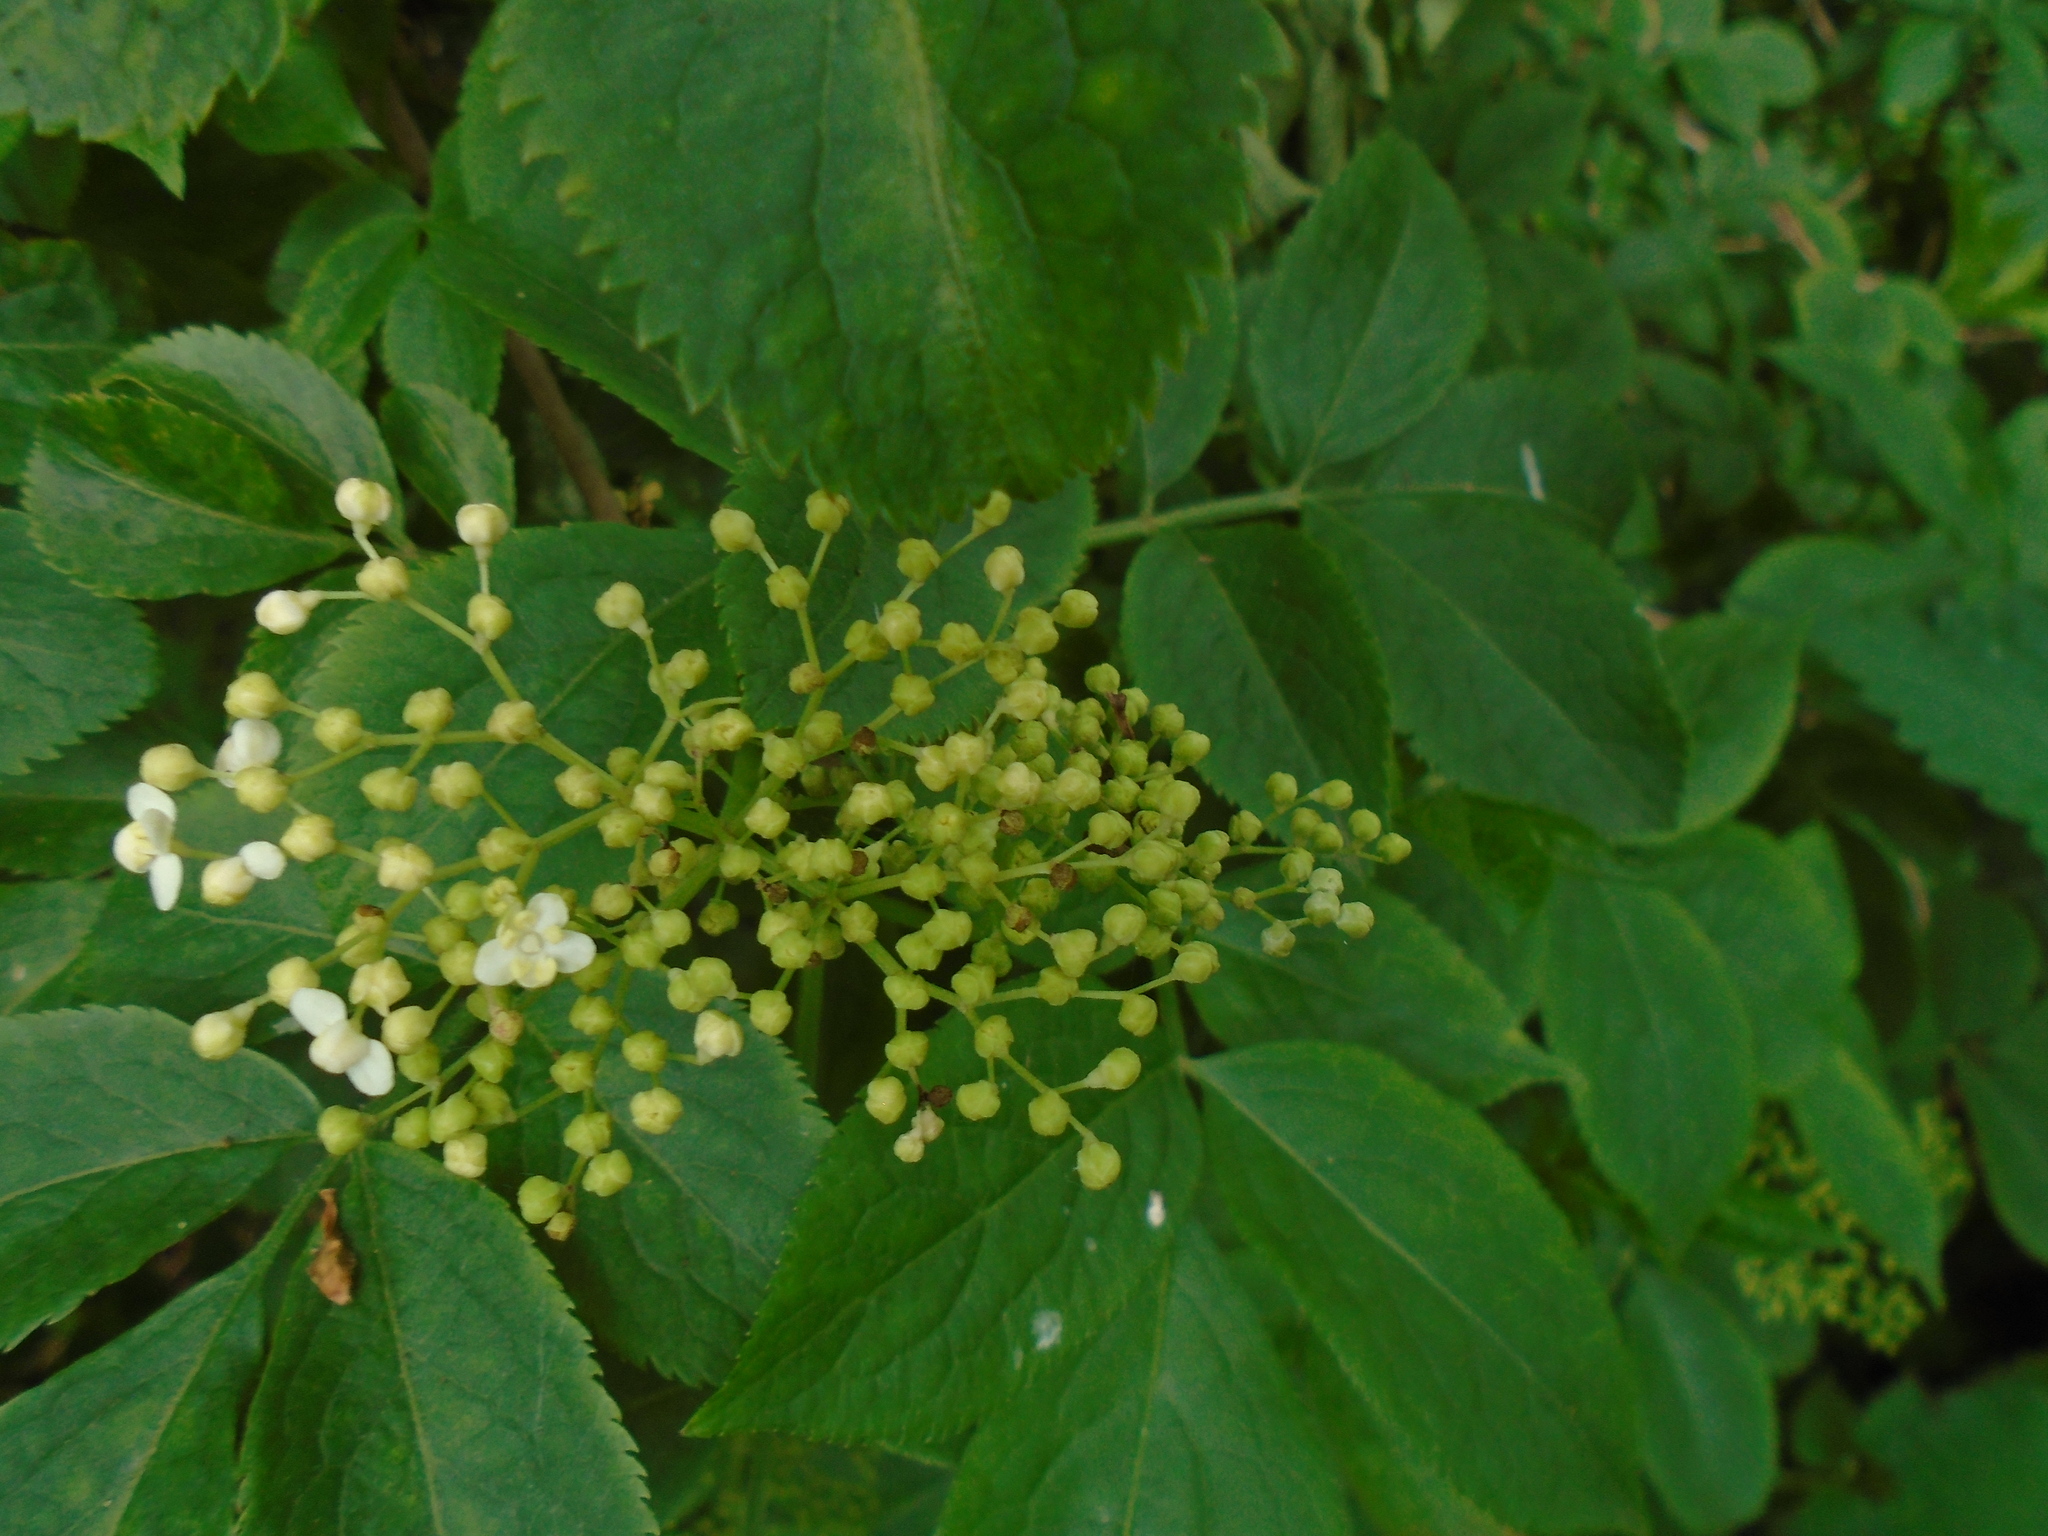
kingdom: Plantae
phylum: Tracheophyta
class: Magnoliopsida
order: Dipsacales
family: Viburnaceae
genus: Sambucus
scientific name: Sambucus nigra
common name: Elder
